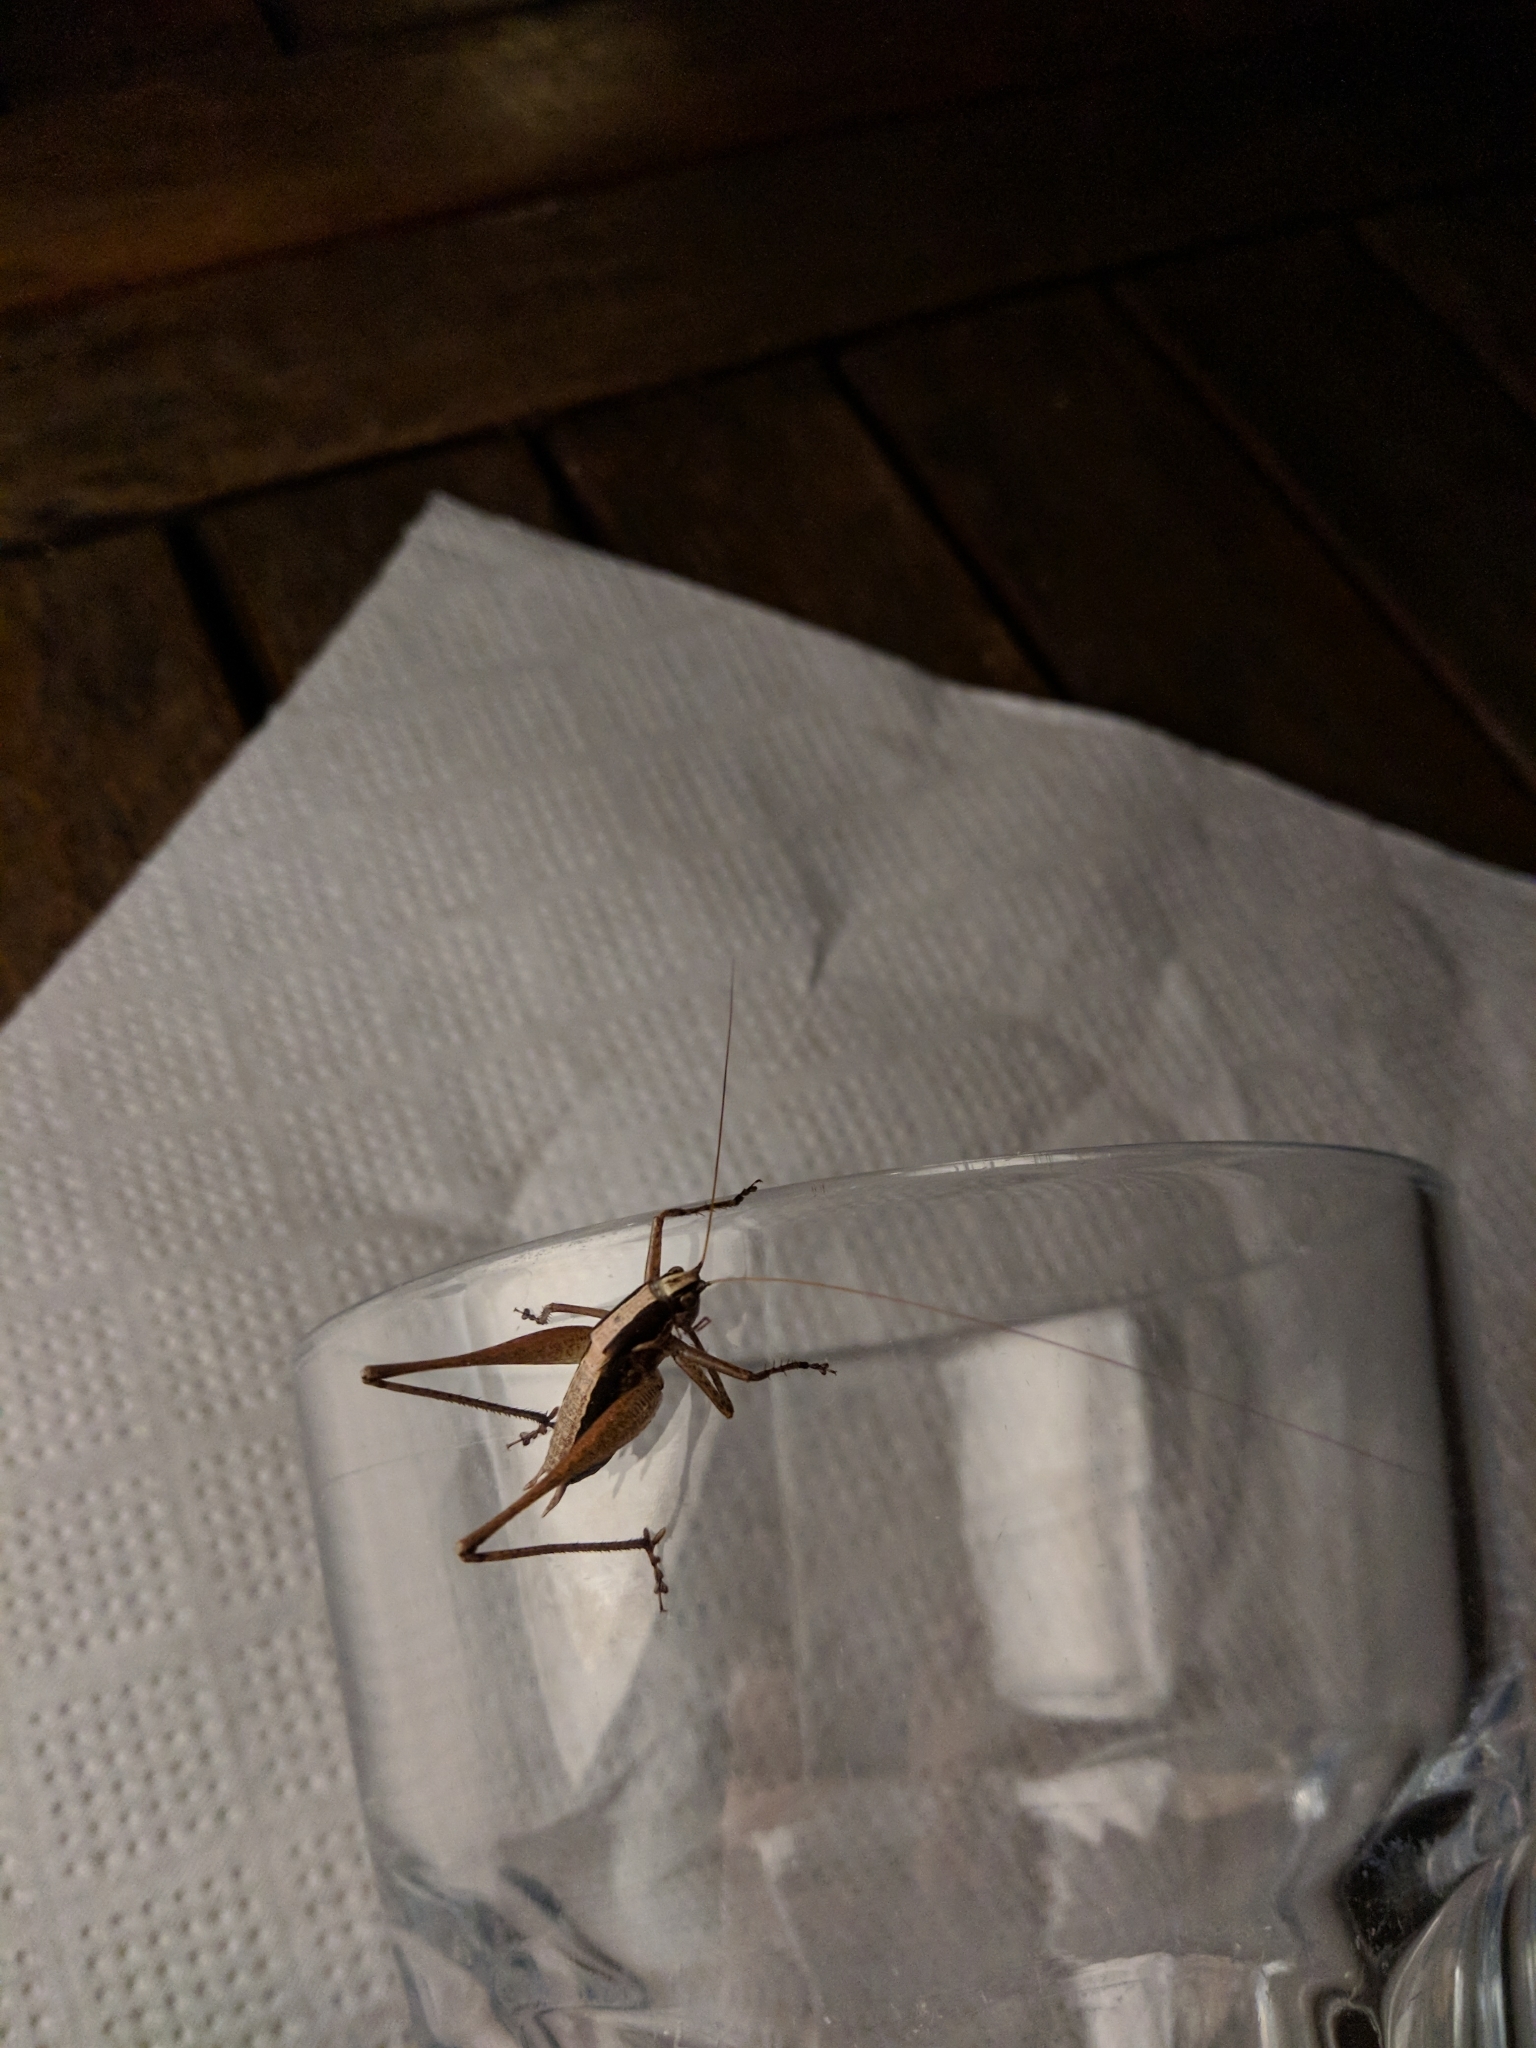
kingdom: Animalia
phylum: Arthropoda
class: Insecta
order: Orthoptera
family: Tettigoniidae
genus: Yersinella
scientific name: Yersinella raymondii
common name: Raymond's bush-cricket
